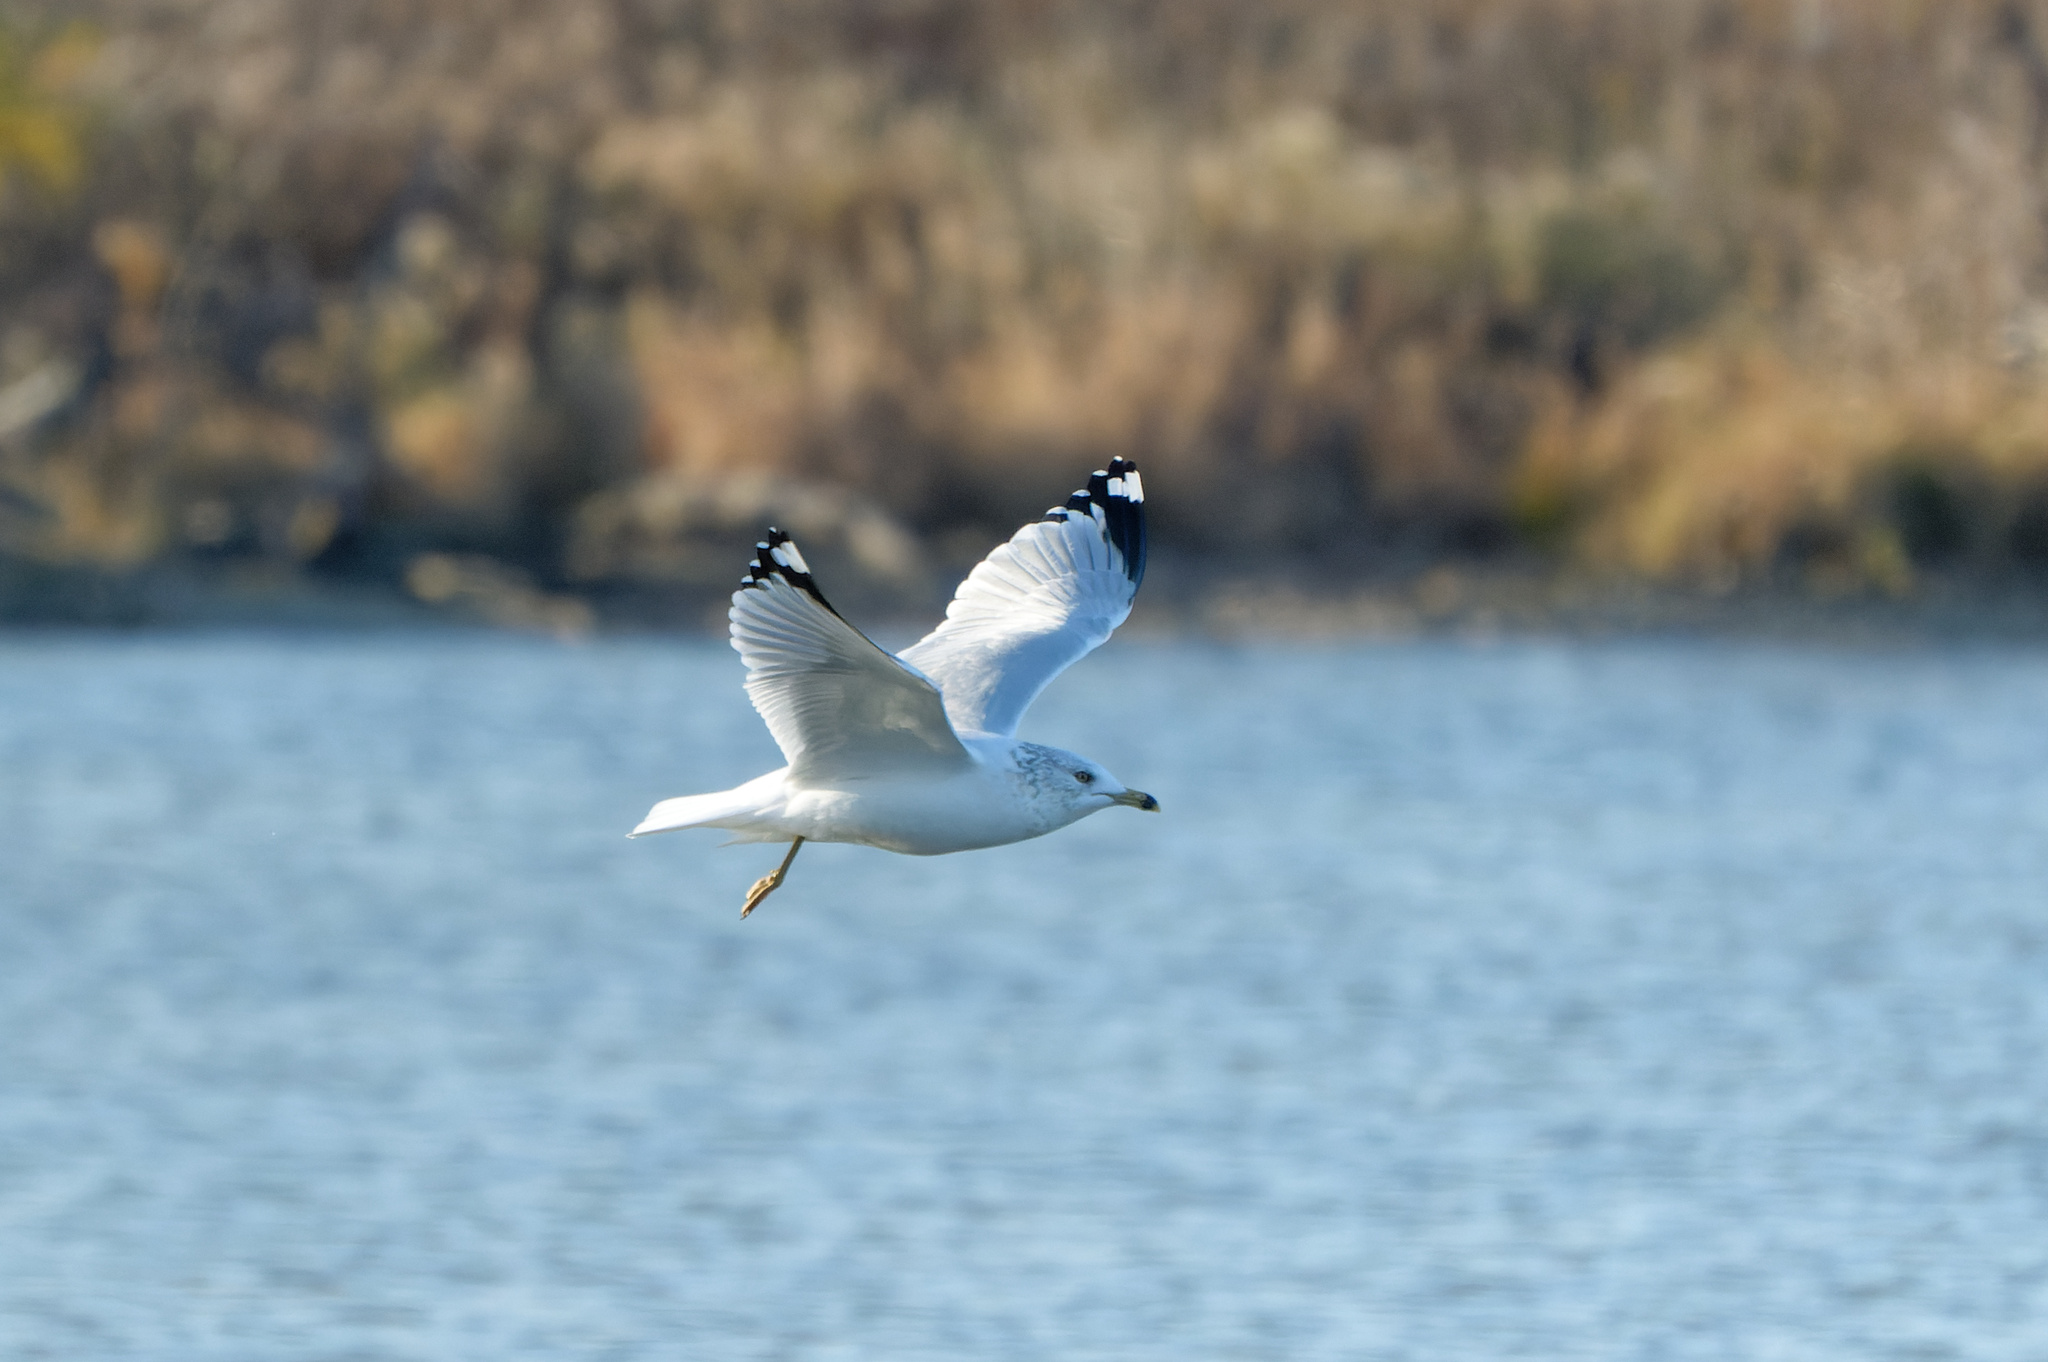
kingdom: Animalia
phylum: Chordata
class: Aves
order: Charadriiformes
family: Laridae
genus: Larus
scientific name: Larus delawarensis
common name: Ring-billed gull
